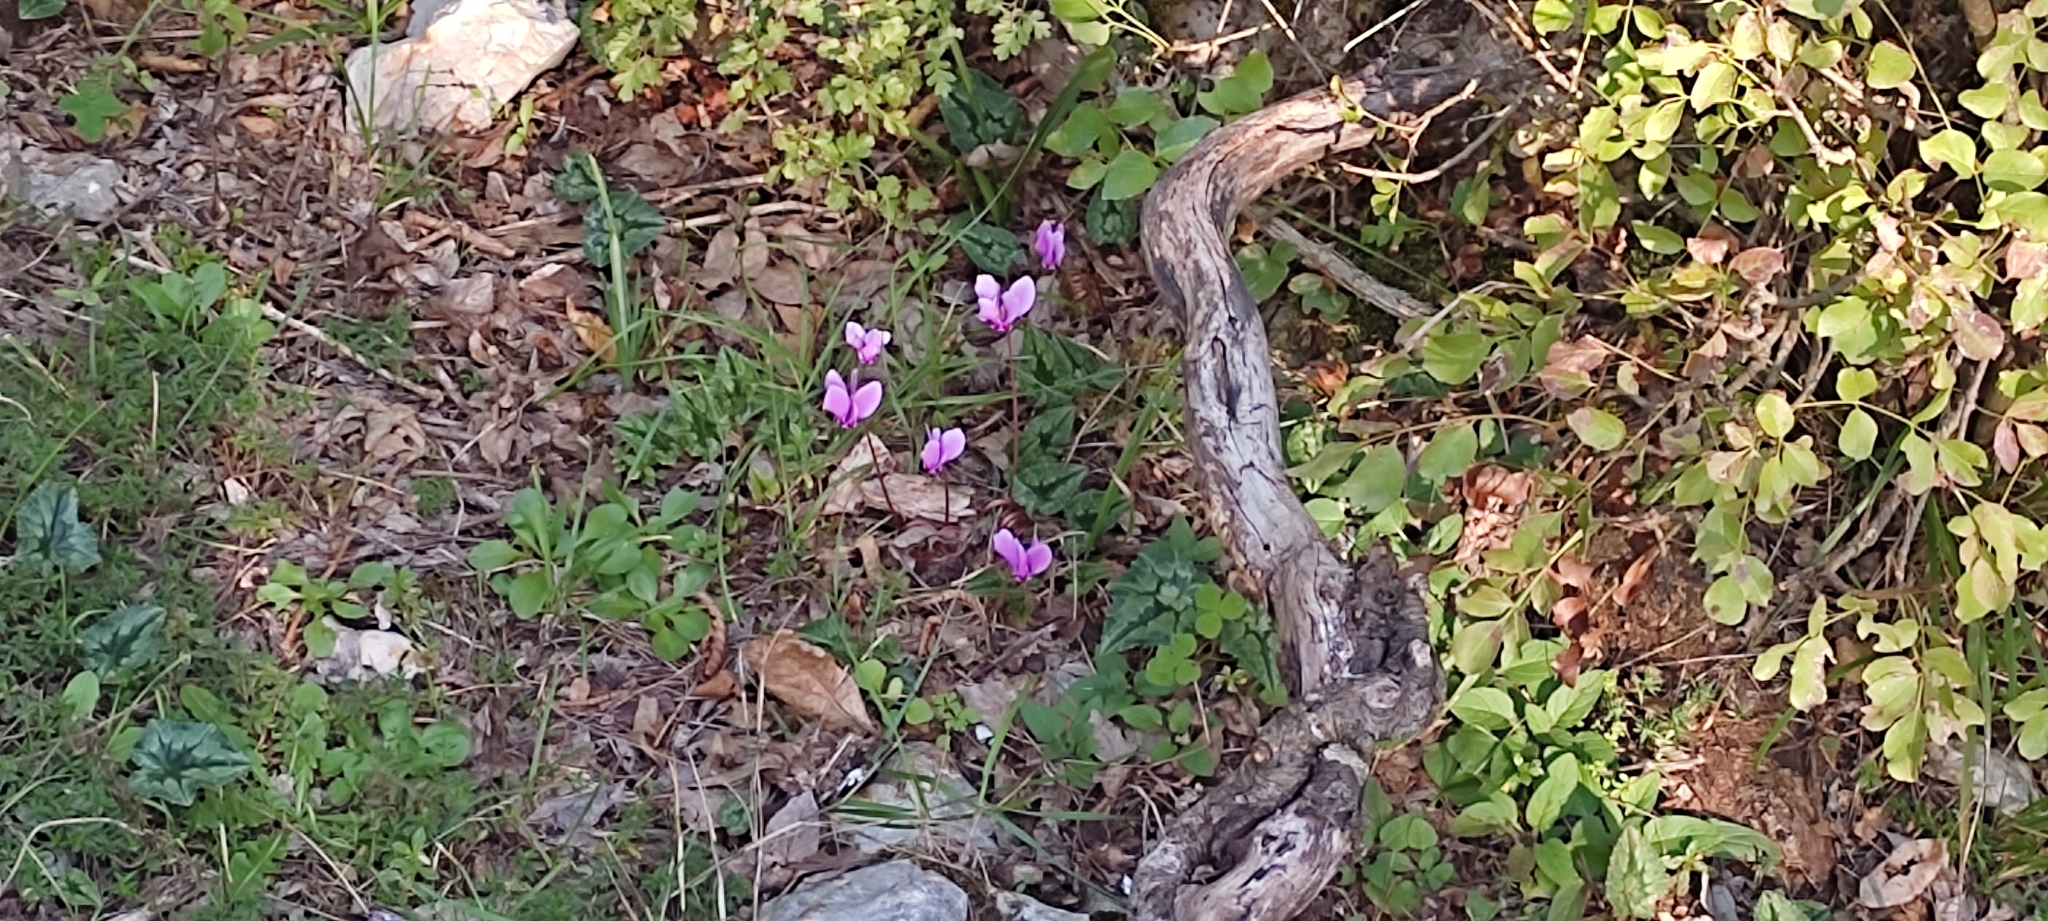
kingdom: Plantae
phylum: Tracheophyta
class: Magnoliopsida
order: Ericales
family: Primulaceae
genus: Cyclamen
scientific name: Cyclamen hederifolium
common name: Sowbread
